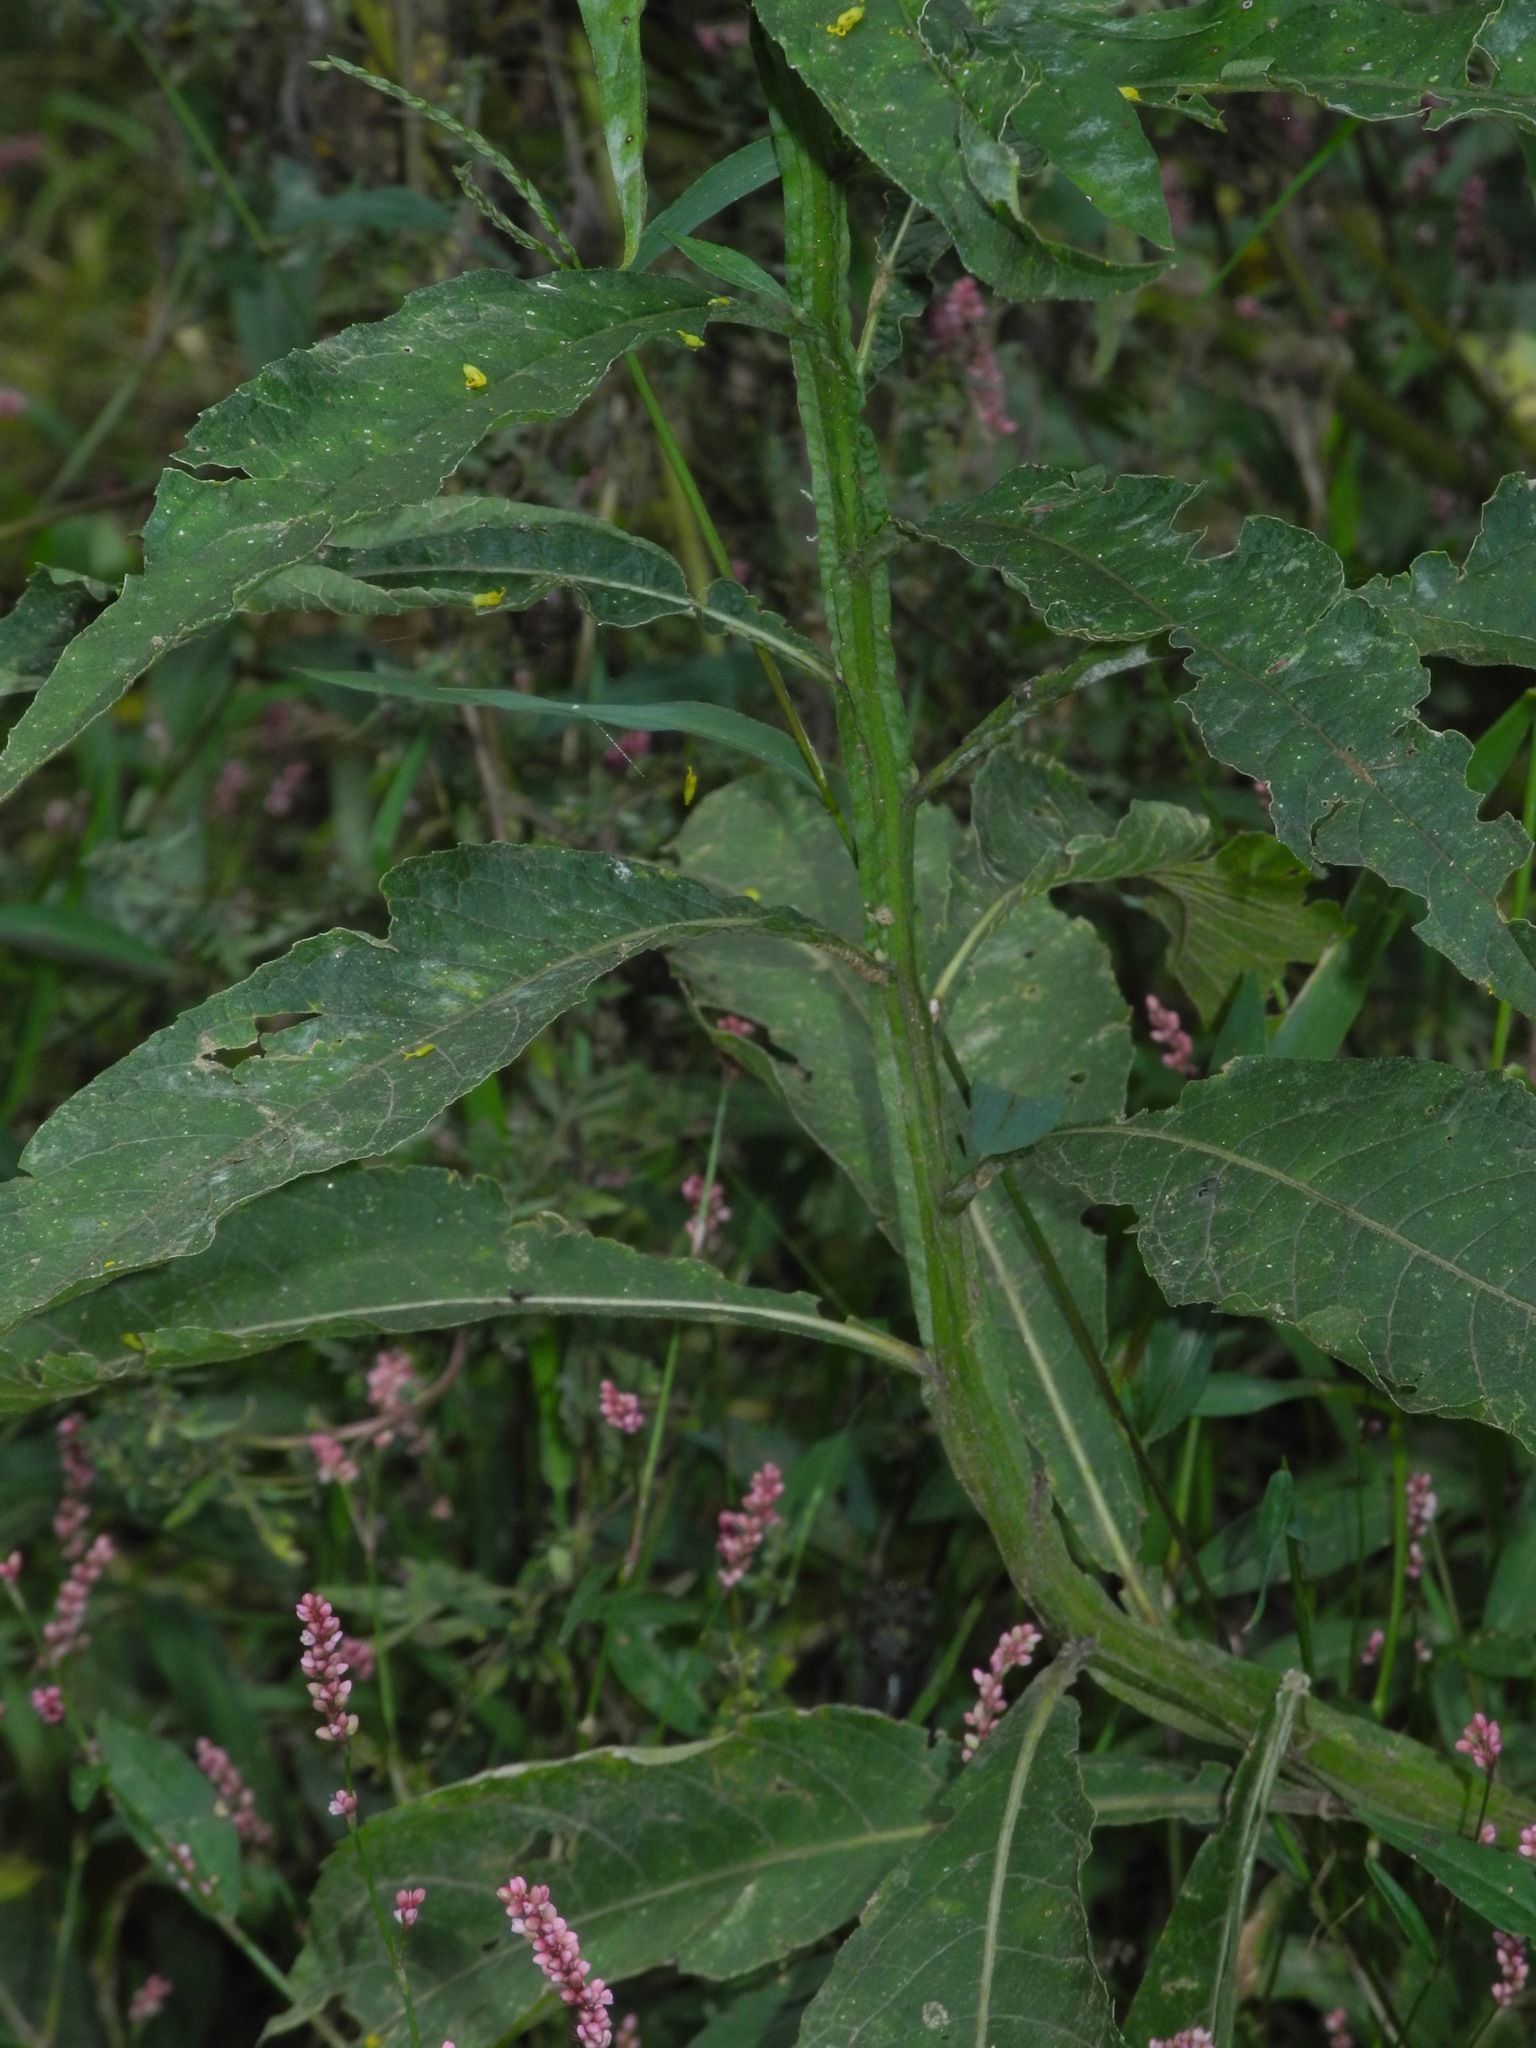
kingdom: Plantae
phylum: Tracheophyta
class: Magnoliopsida
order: Asterales
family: Asteraceae
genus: Verbesina
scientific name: Verbesina alternifolia
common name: Wingstem
